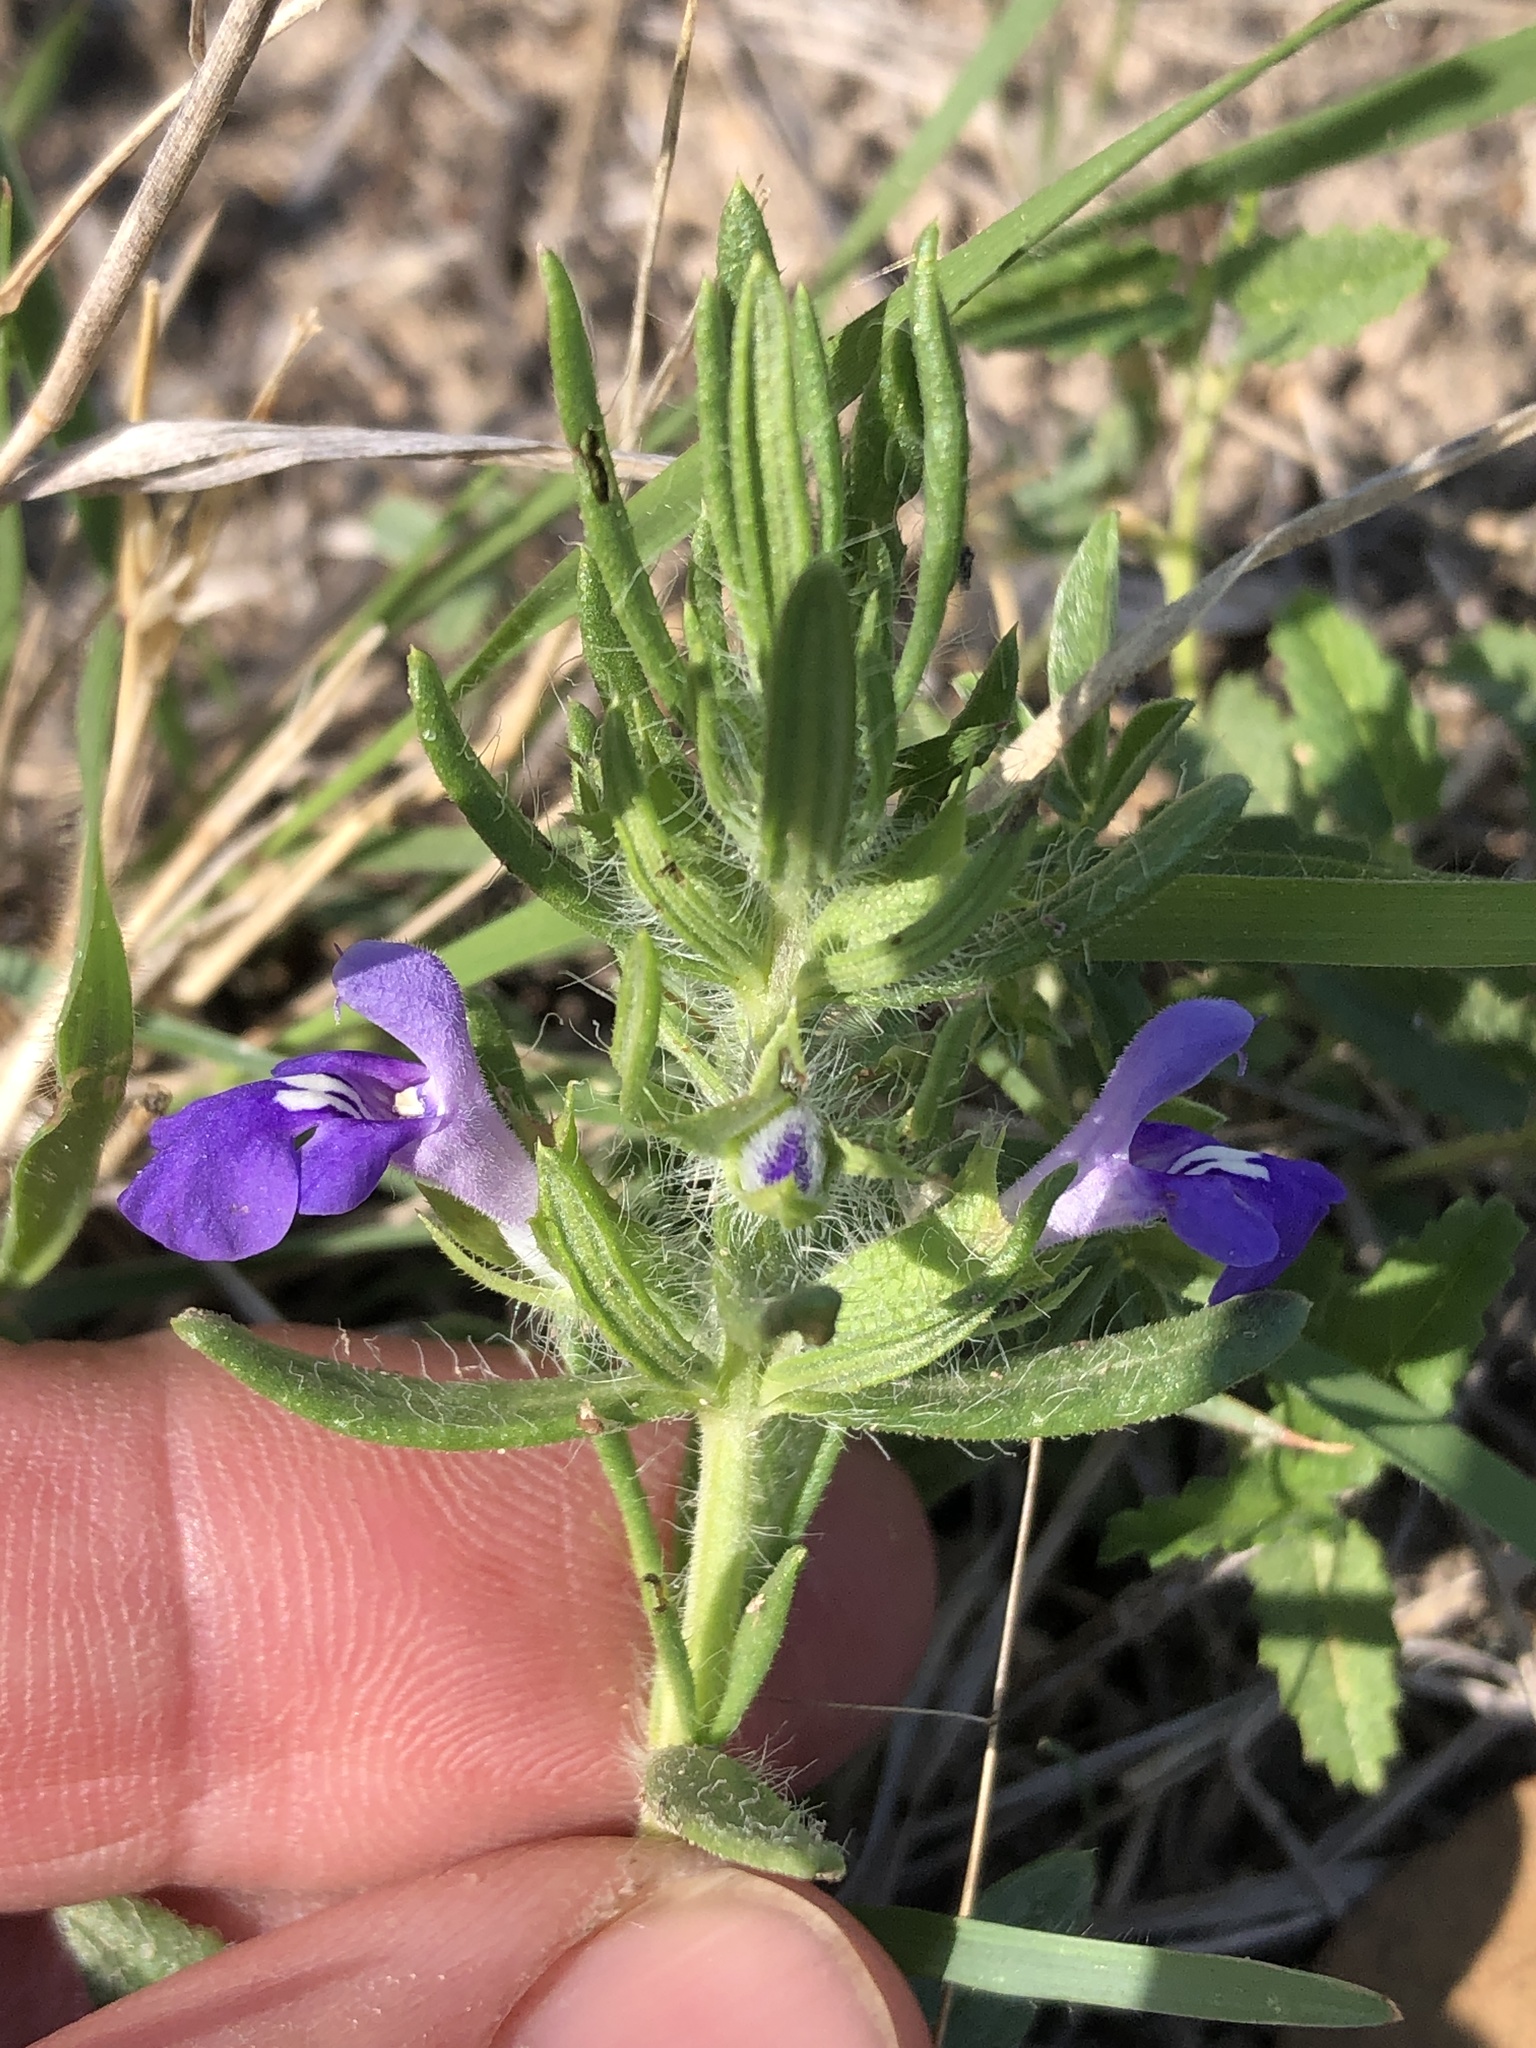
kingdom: Plantae
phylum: Tracheophyta
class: Magnoliopsida
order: Lamiales
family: Lamiaceae
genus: Salvia
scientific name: Salvia texana
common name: Texas sage
